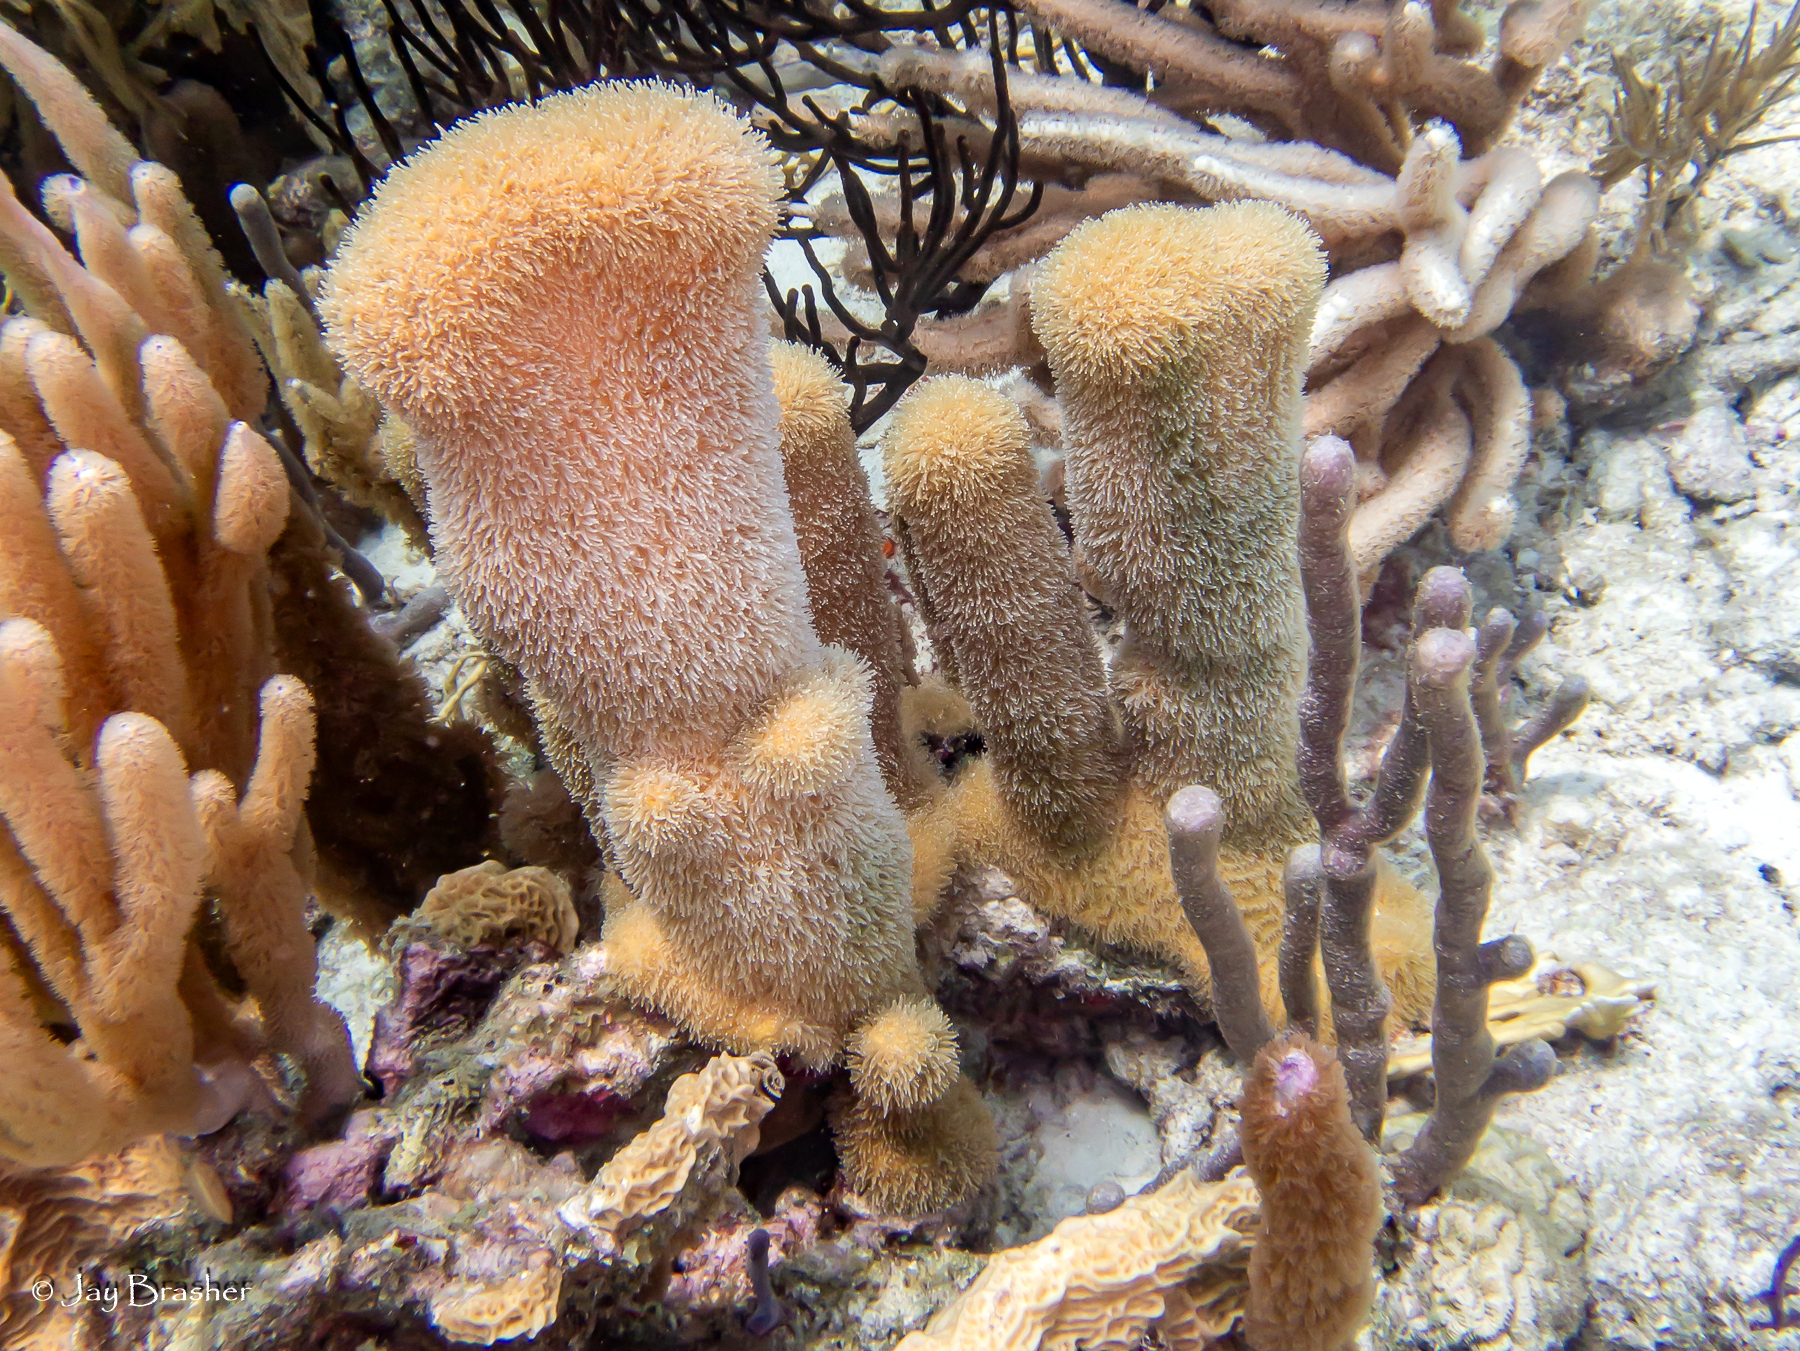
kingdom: Animalia
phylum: Cnidaria
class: Anthozoa
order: Scleractinia
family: Meandrinidae
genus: Dendrogyra
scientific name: Dendrogyra cylindrus
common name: Pillar coral
